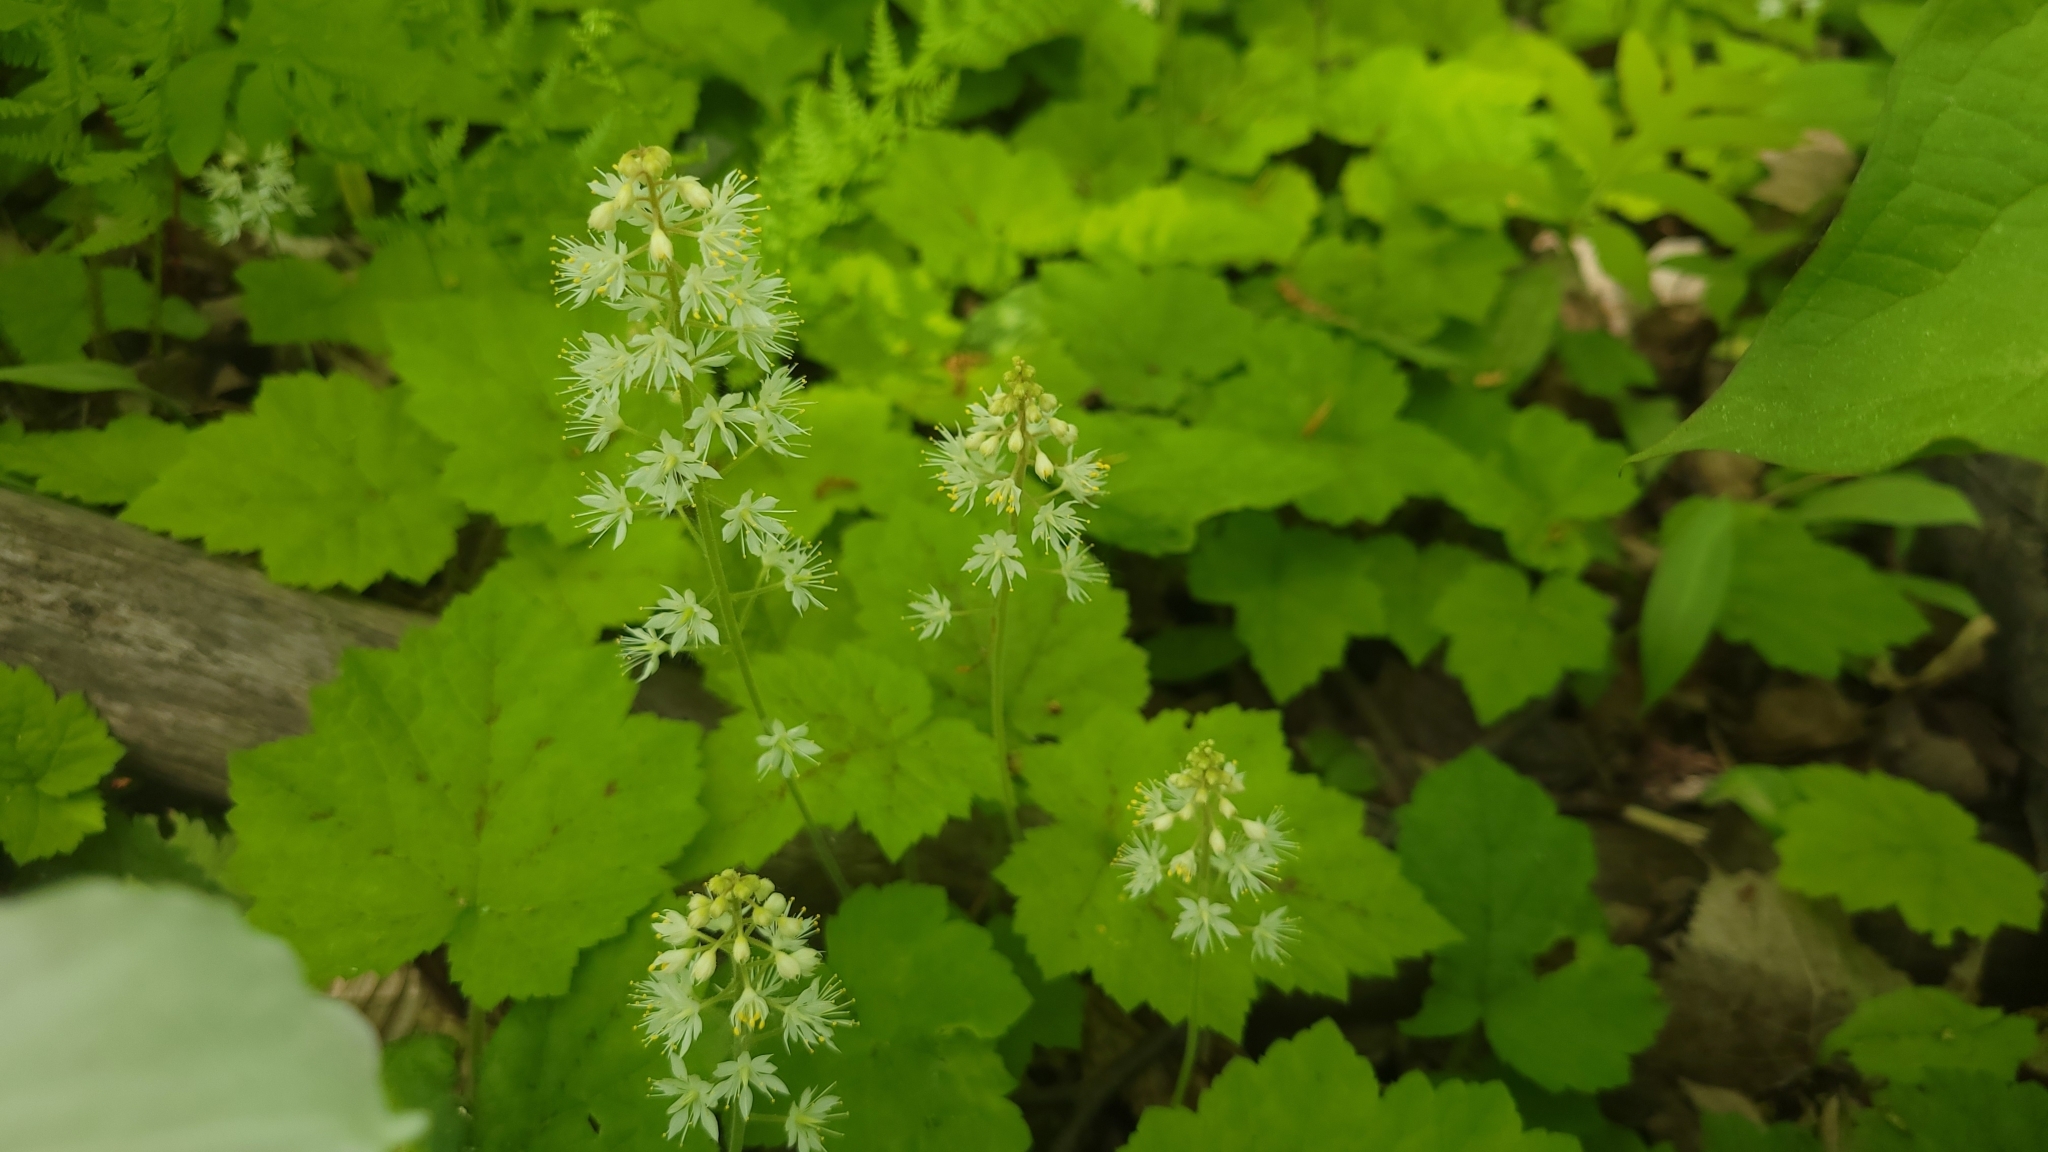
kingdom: Plantae
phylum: Tracheophyta
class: Magnoliopsida
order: Saxifragales
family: Saxifragaceae
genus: Tiarella
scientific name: Tiarella stolonifera
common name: Stoloniferous foamflower
